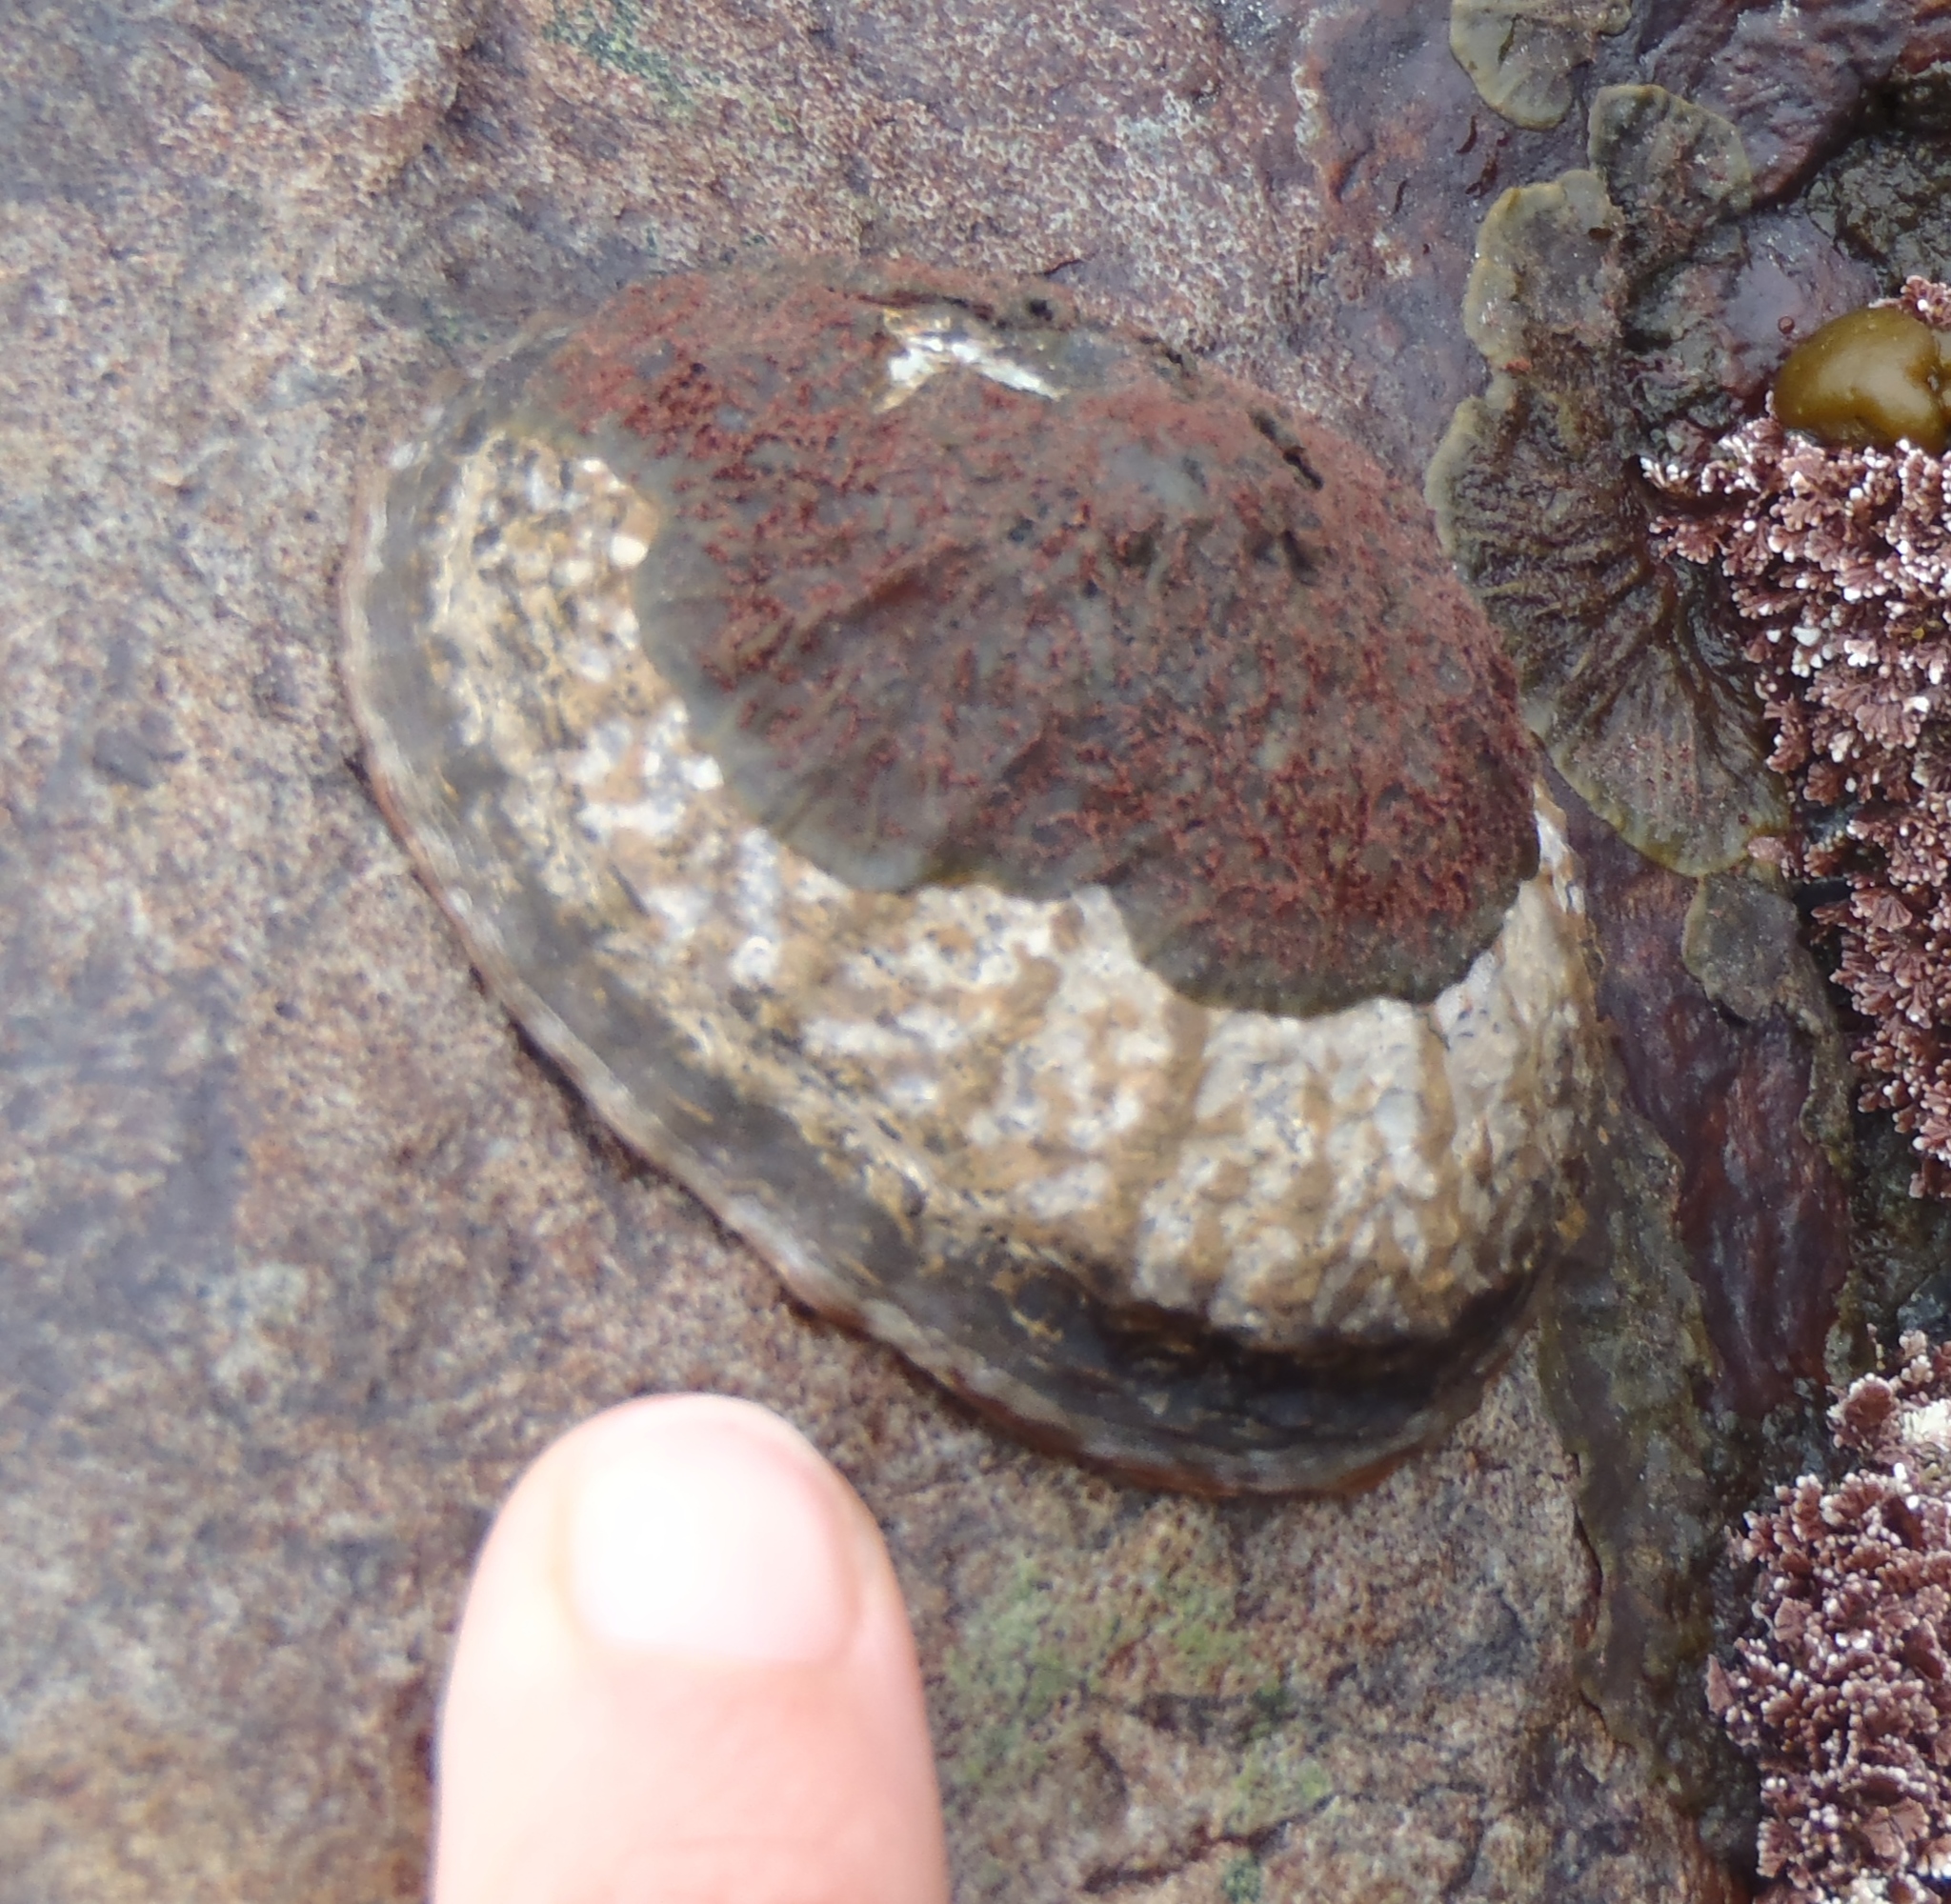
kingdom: Animalia
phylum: Mollusca
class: Gastropoda
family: Nacellidae
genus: Cellana
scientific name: Cellana denticulata
